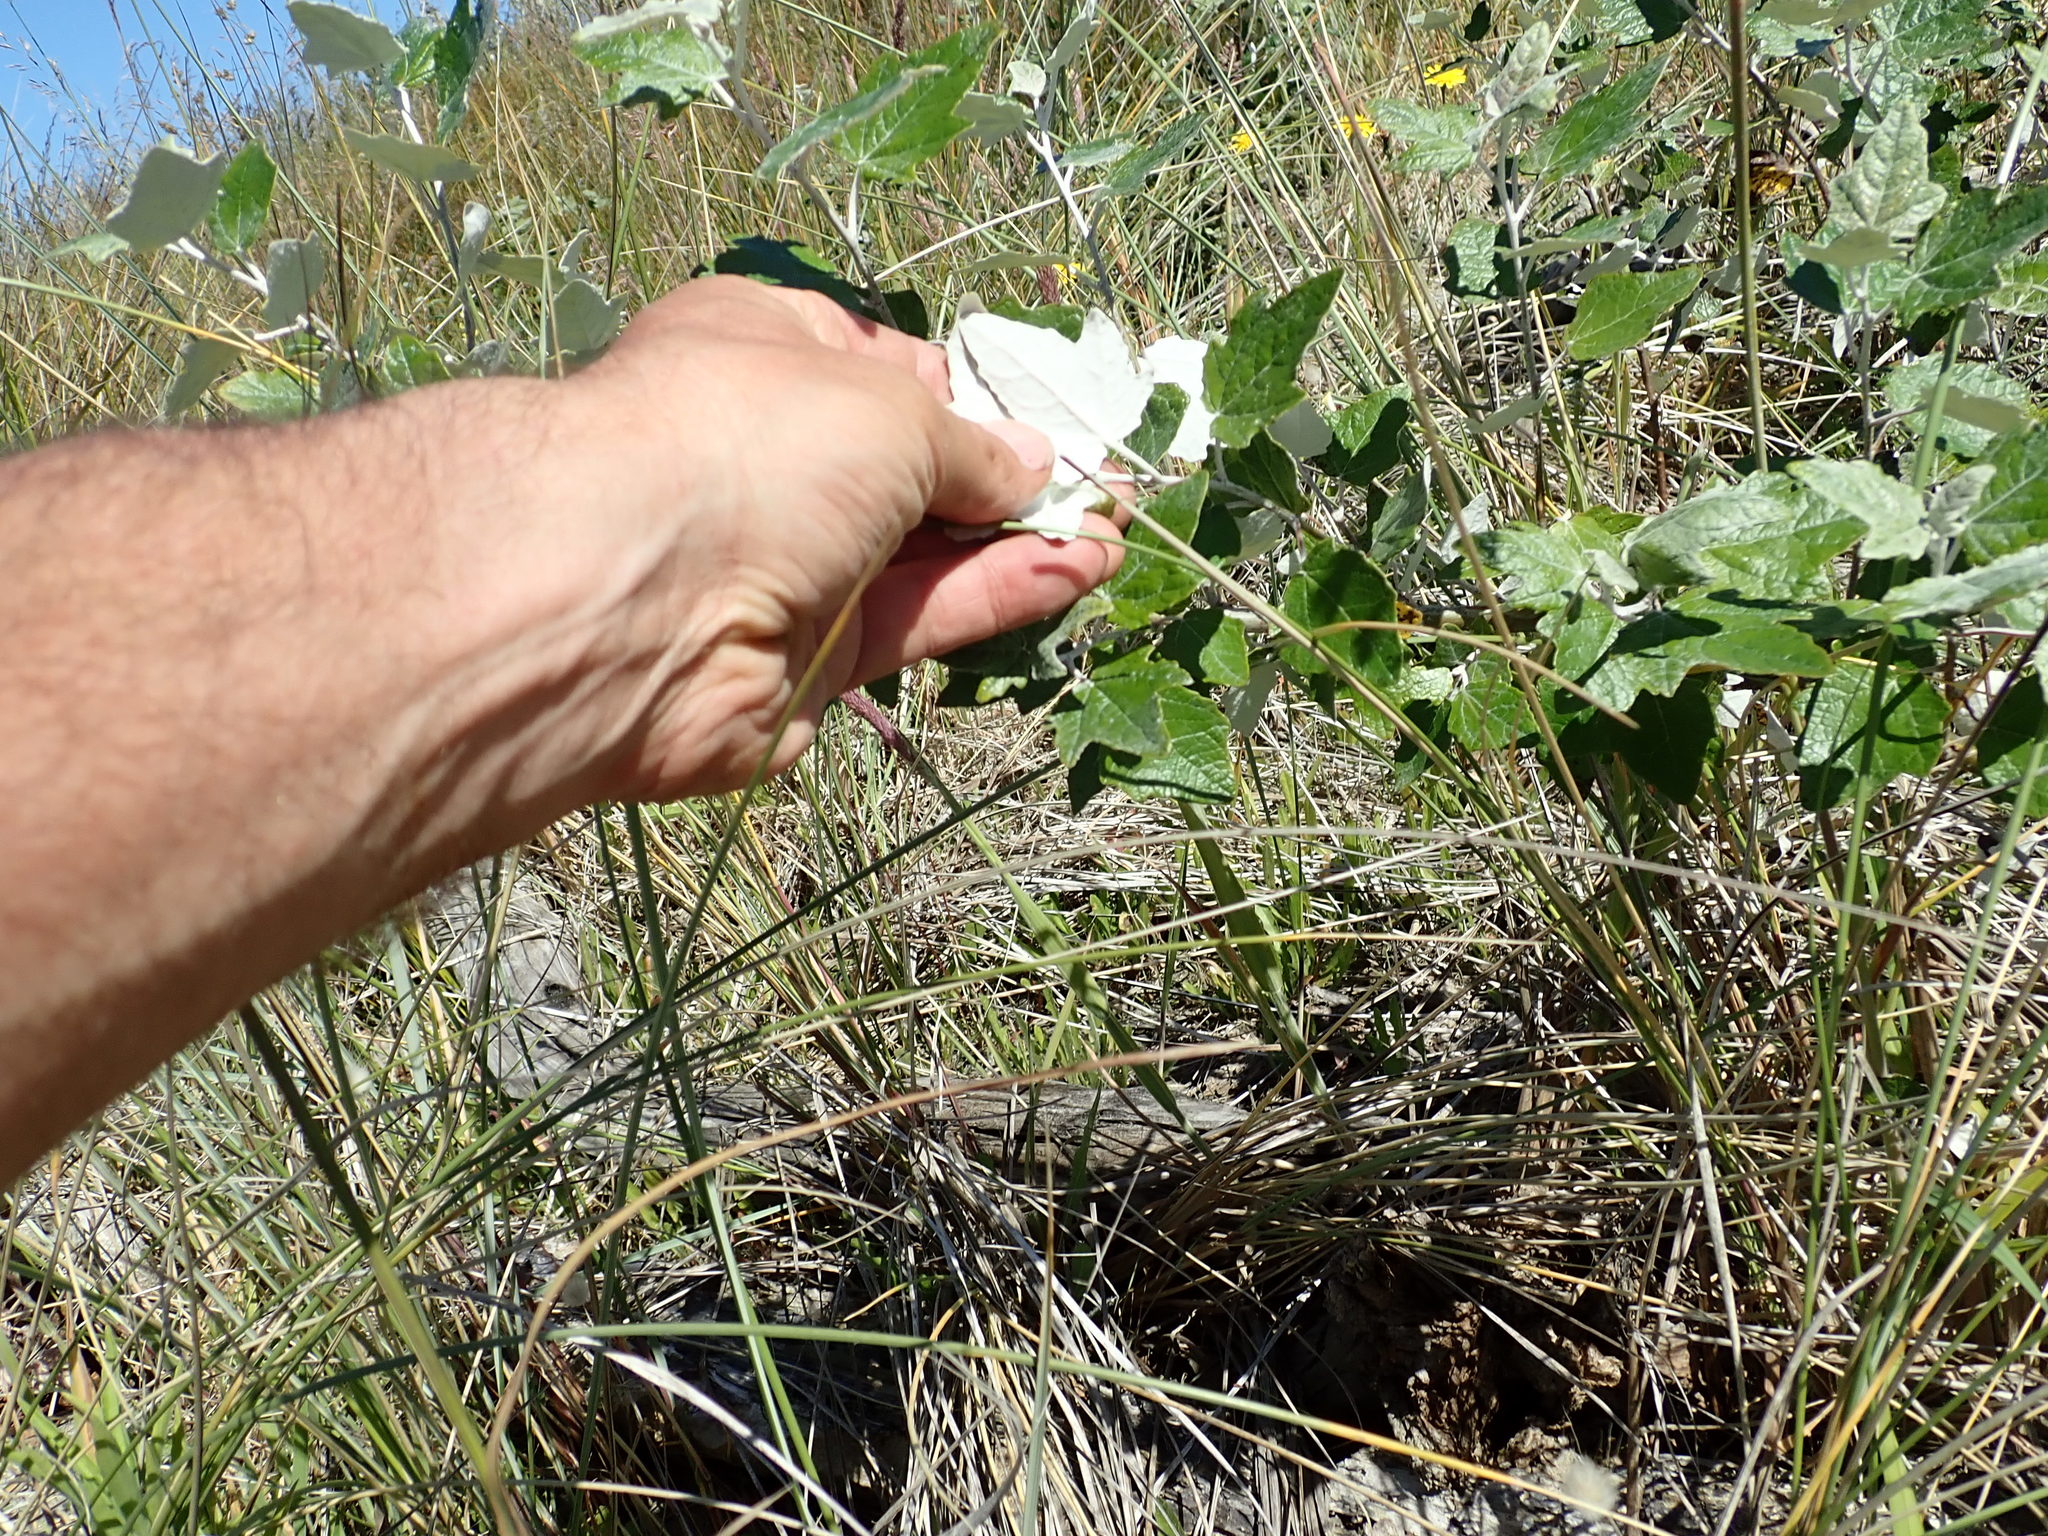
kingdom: Plantae
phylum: Tracheophyta
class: Magnoliopsida
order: Malpighiales
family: Salicaceae
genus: Populus
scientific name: Populus alba
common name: White poplar
